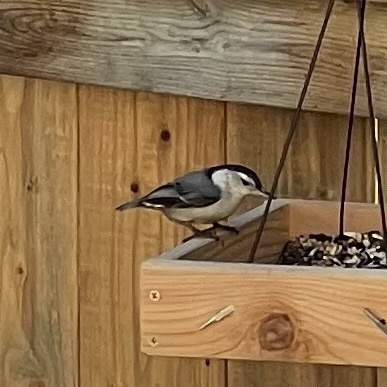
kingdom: Animalia
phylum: Chordata
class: Aves
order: Passeriformes
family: Sittidae
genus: Sitta
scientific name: Sitta carolinensis
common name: White-breasted nuthatch
